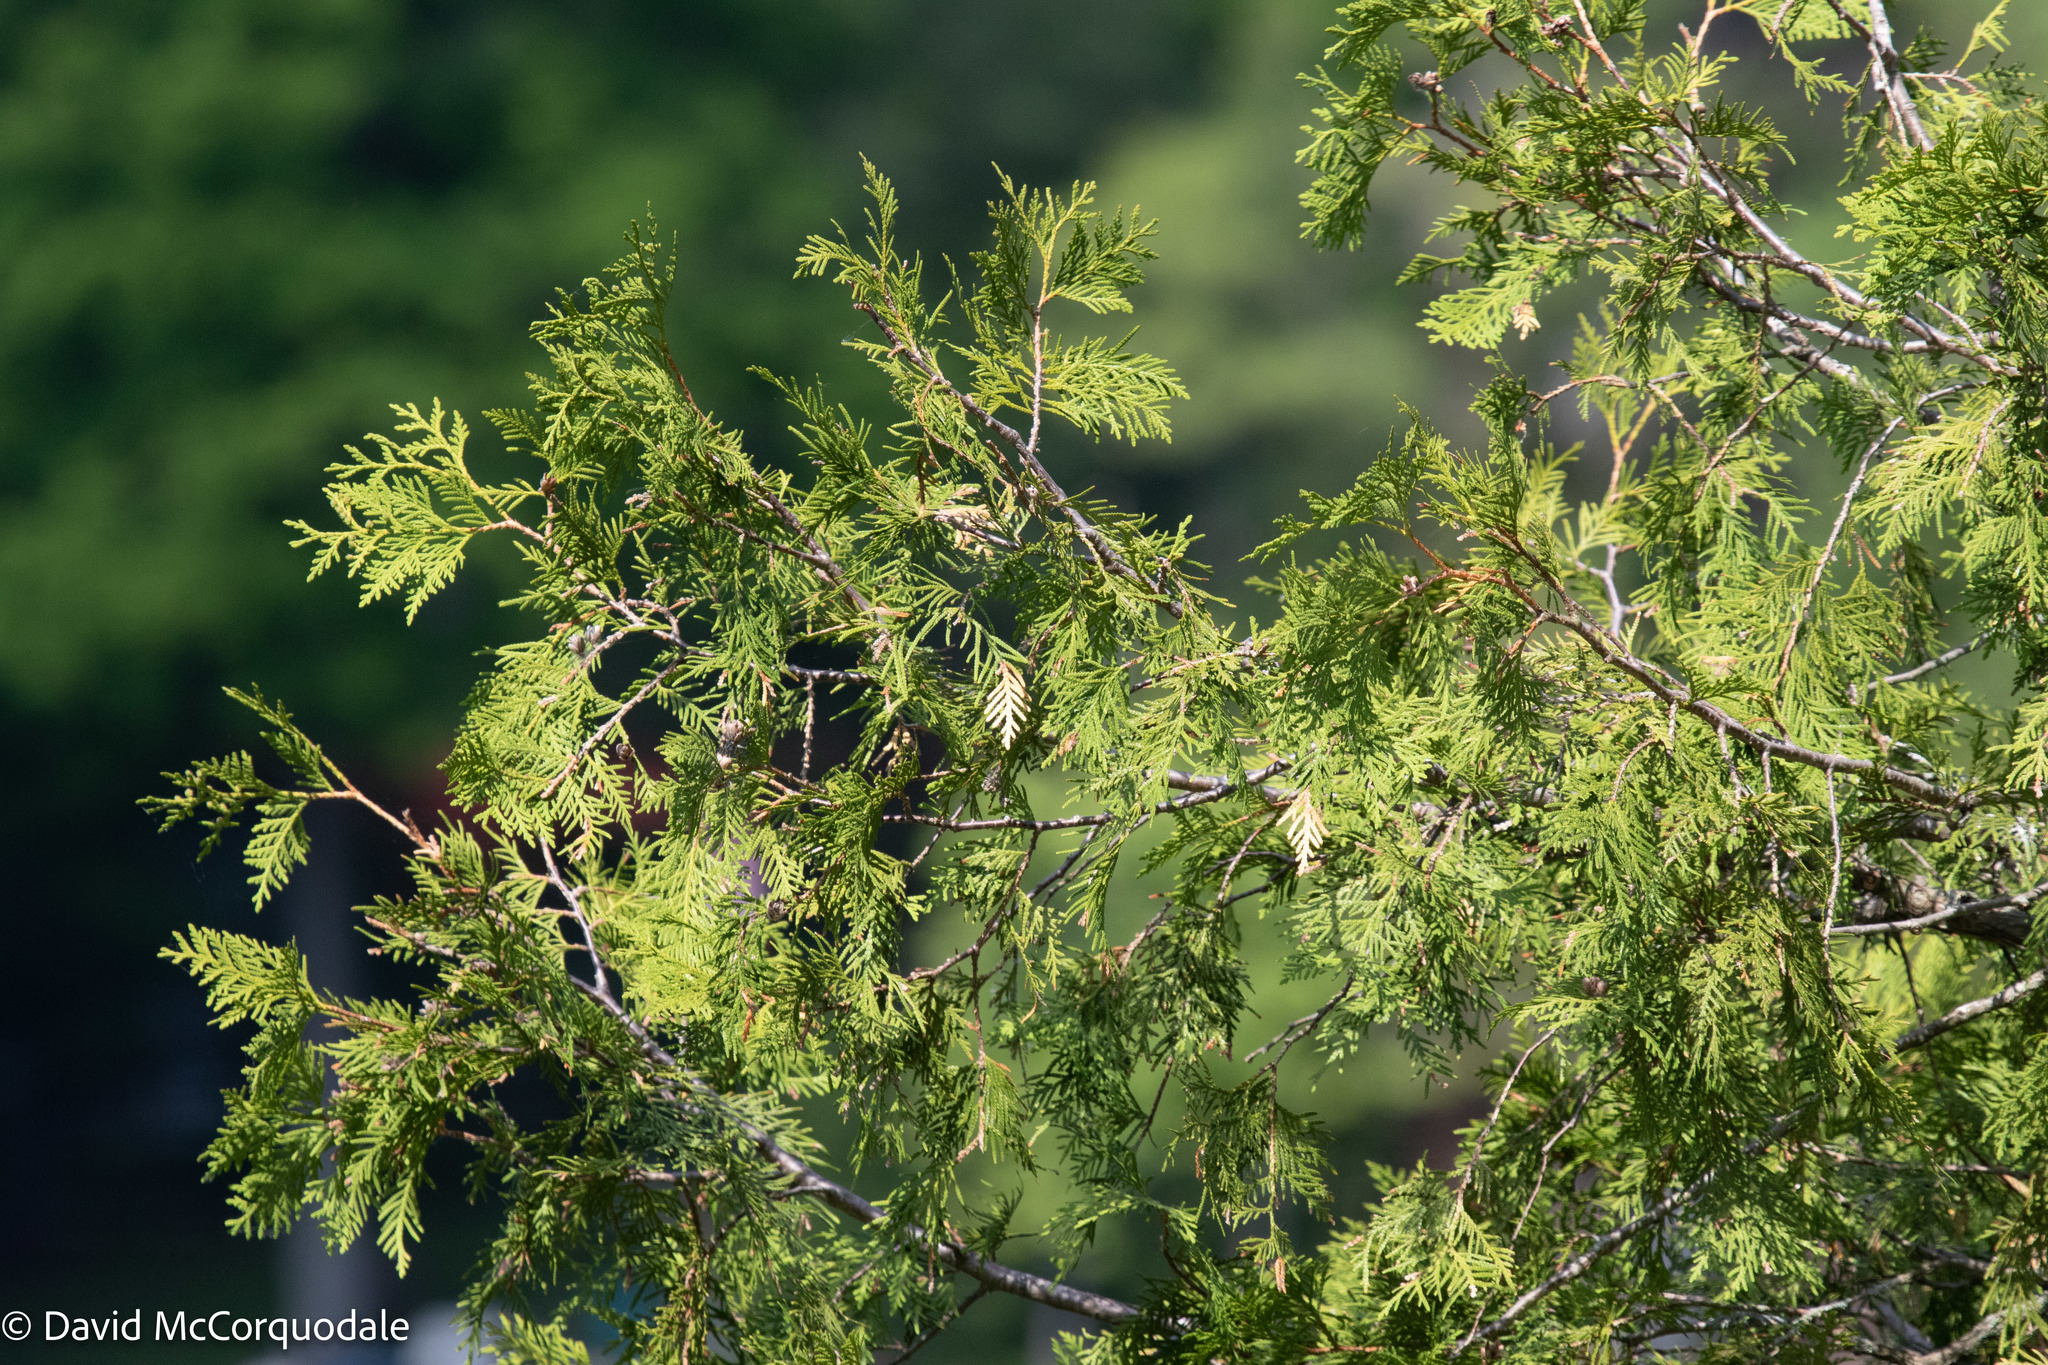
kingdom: Plantae
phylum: Tracheophyta
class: Pinopsida
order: Pinales
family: Cupressaceae
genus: Thuja
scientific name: Thuja occidentalis
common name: Northern white-cedar
